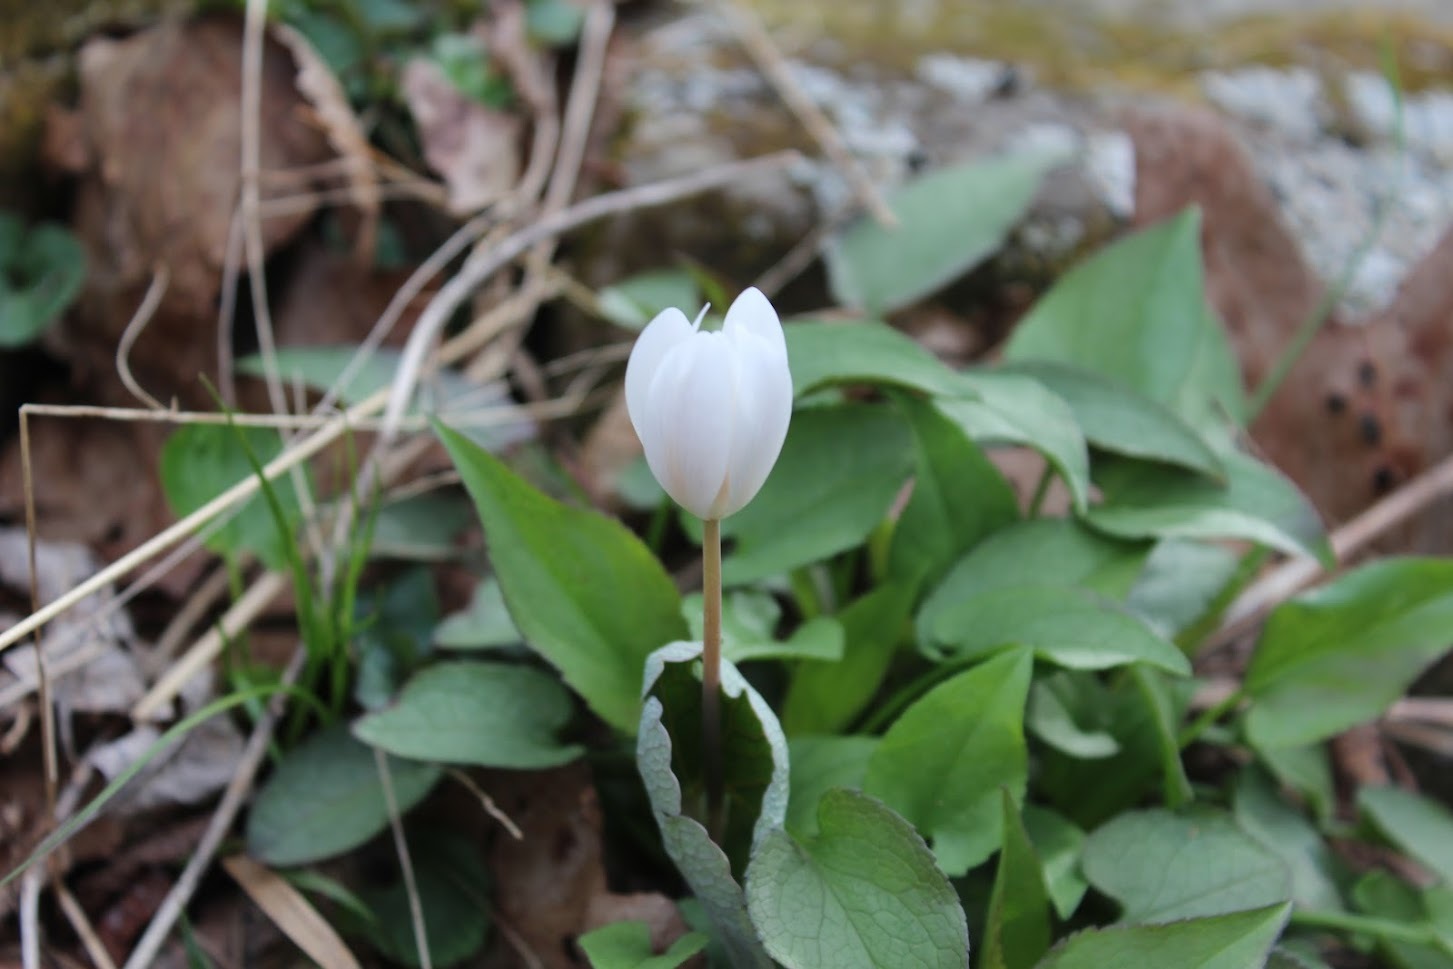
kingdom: Plantae
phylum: Tracheophyta
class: Magnoliopsida
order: Ranunculales
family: Papaveraceae
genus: Sanguinaria
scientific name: Sanguinaria canadensis
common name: Bloodroot
